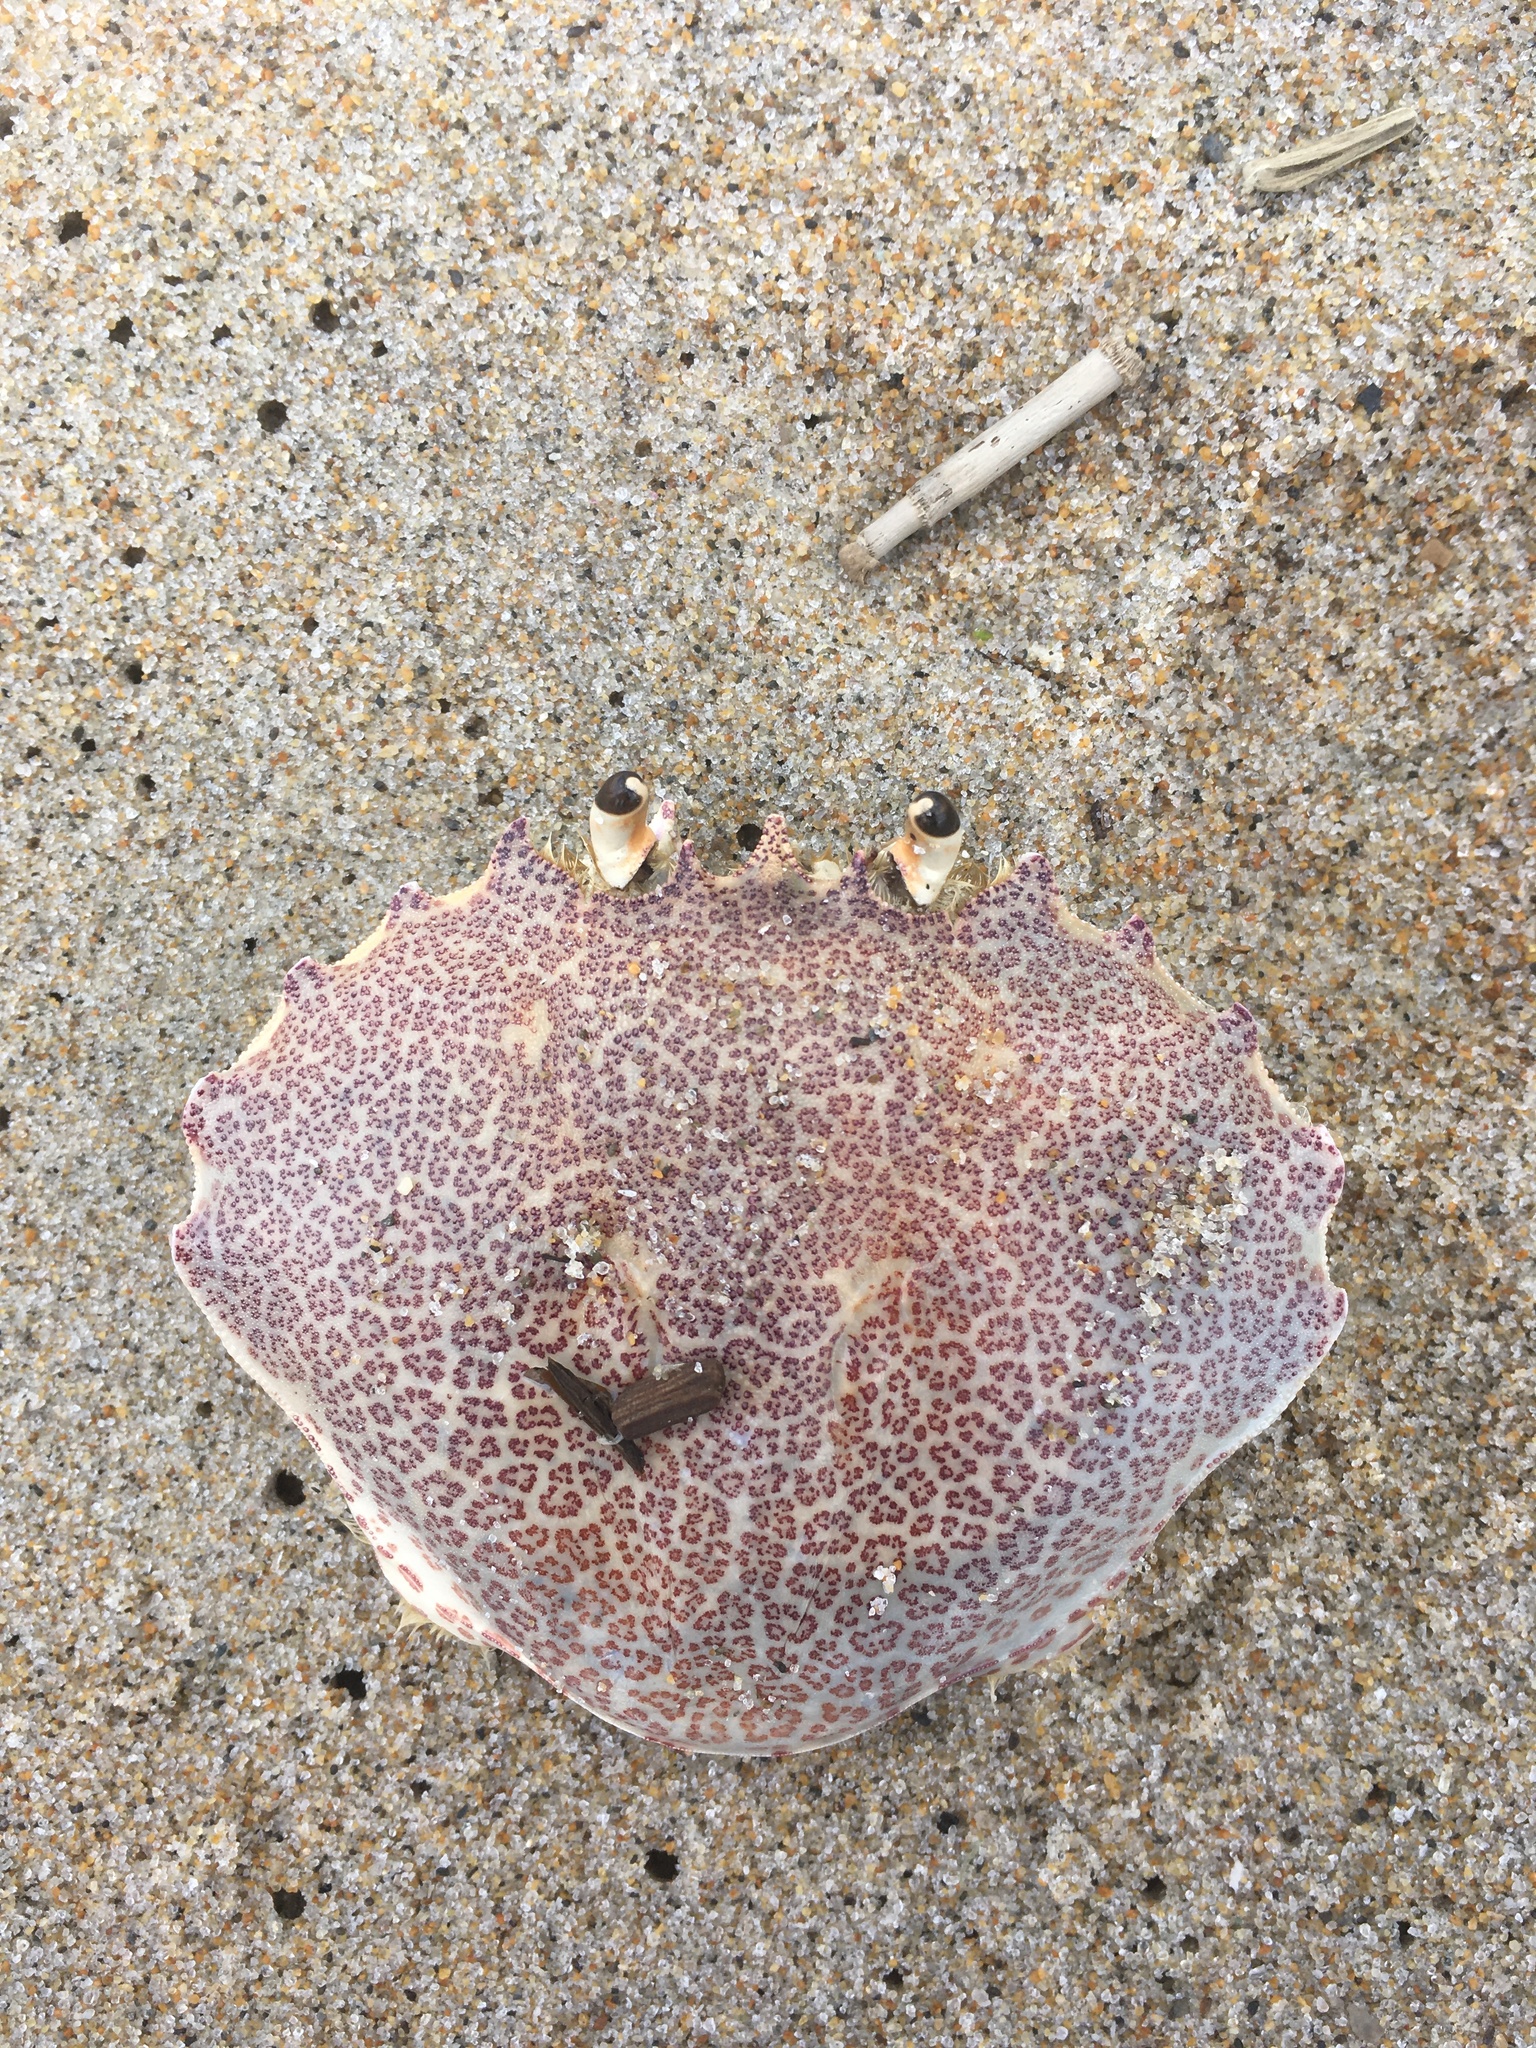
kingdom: Animalia
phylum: Arthropoda
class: Malacostraca
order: Decapoda
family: Ovalipidae
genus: Ovalipes
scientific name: Ovalipes ocellatus
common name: Lady crab
